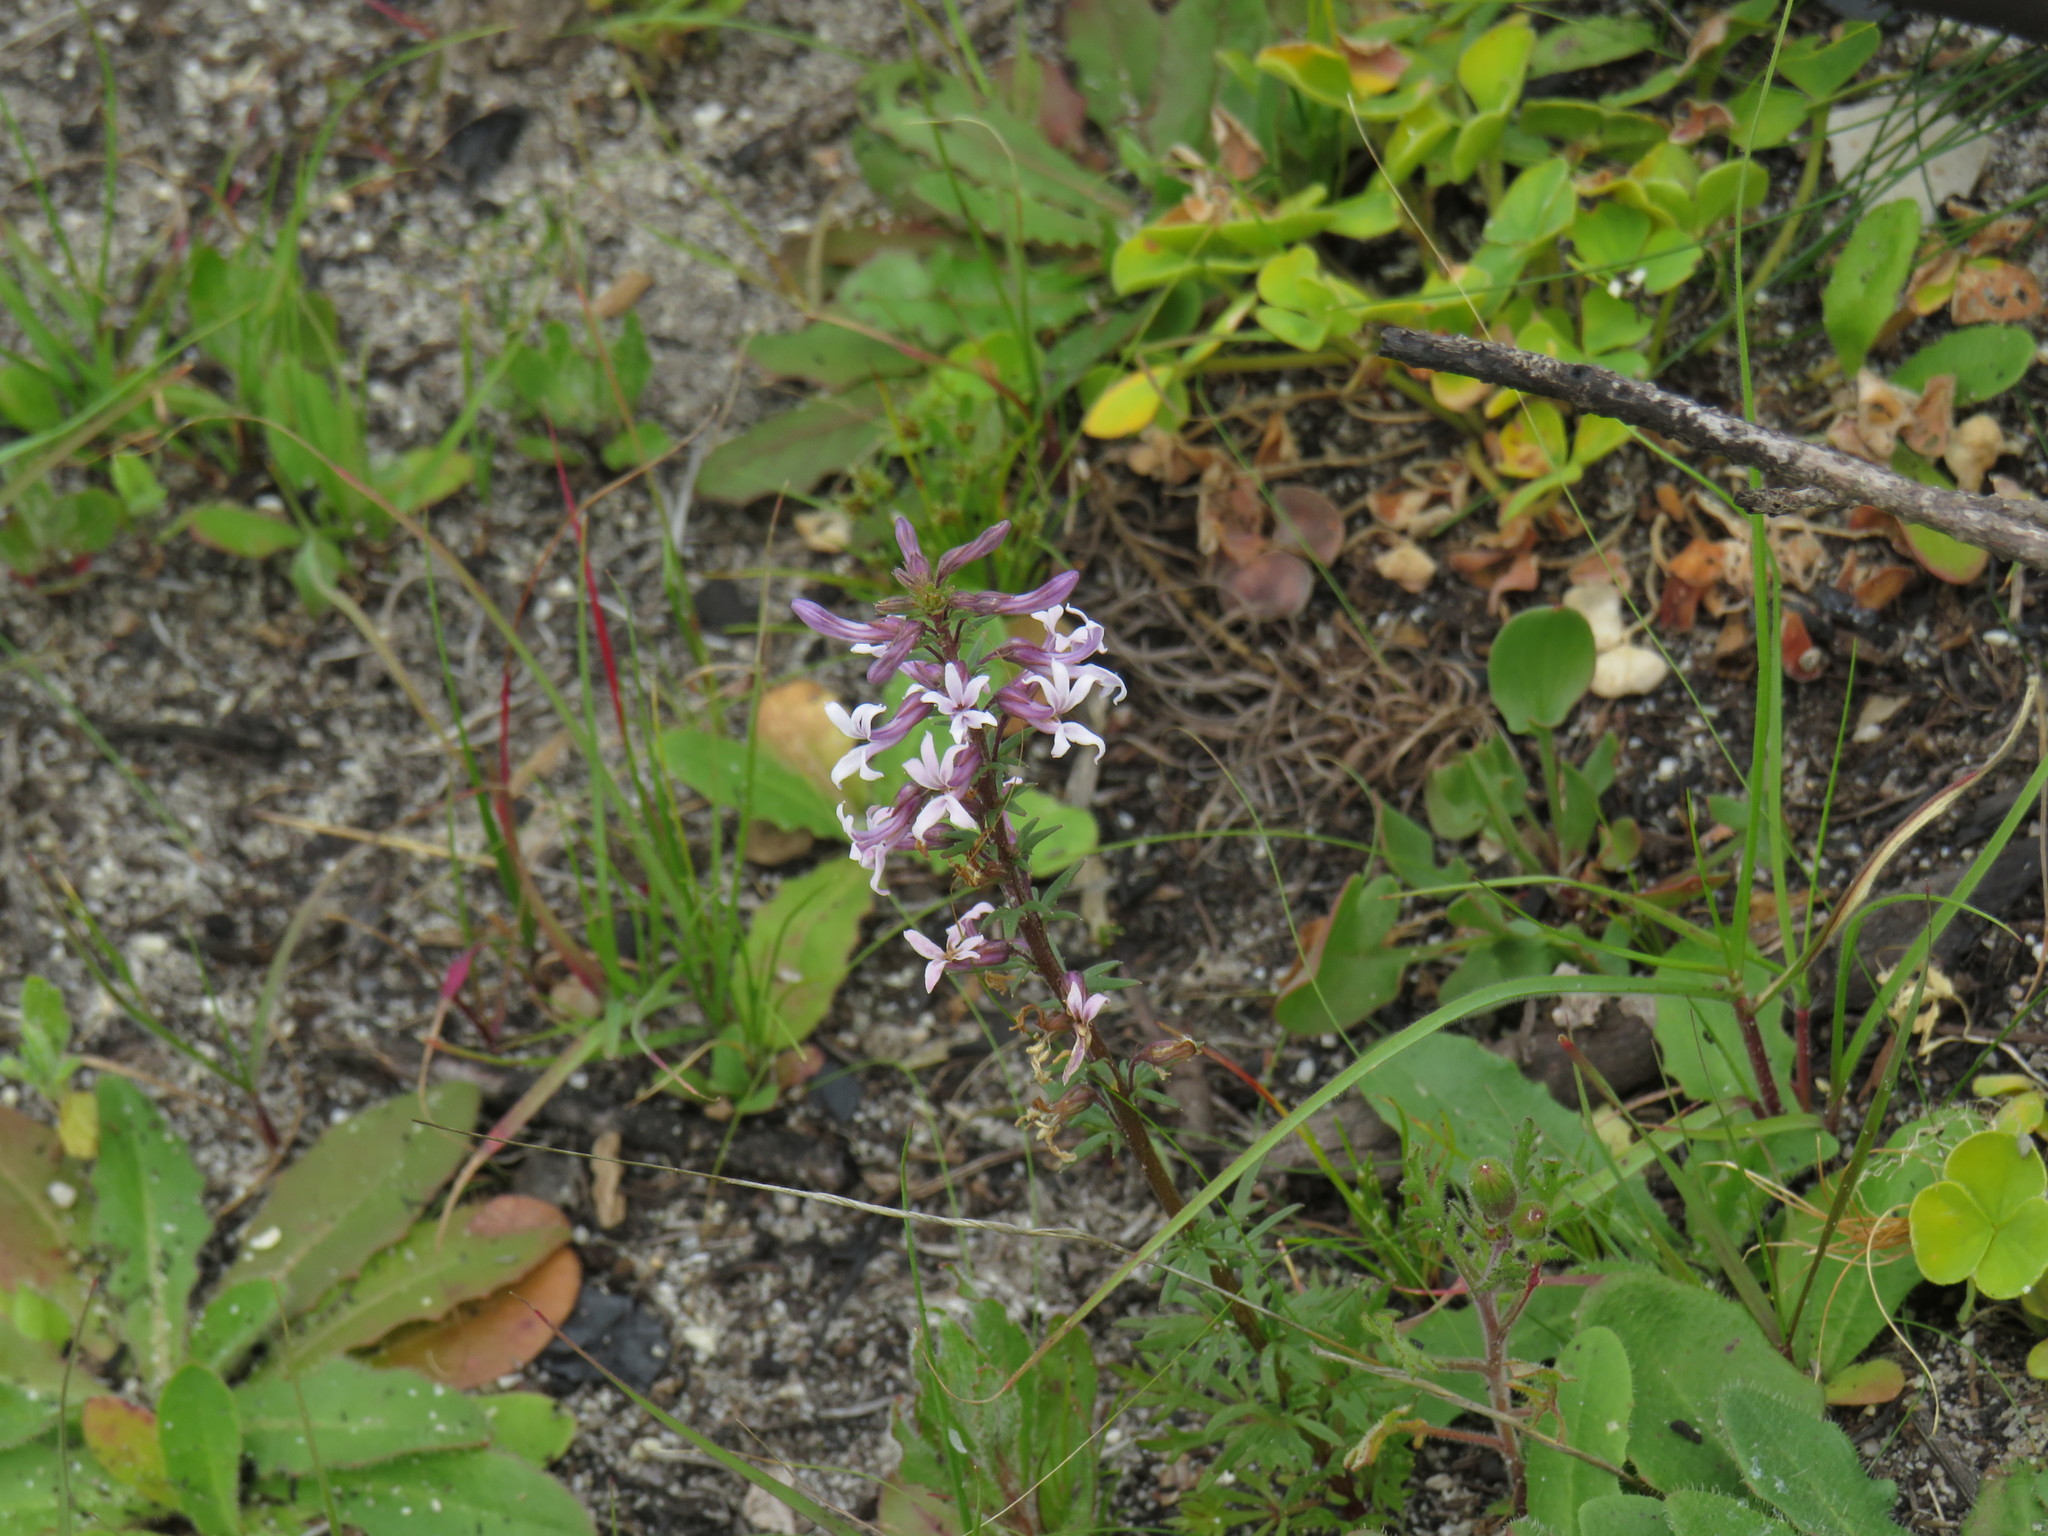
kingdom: Plantae
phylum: Tracheophyta
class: Magnoliopsida
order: Asterales
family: Campanulaceae
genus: Cyphia
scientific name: Cyphia bulbosa
